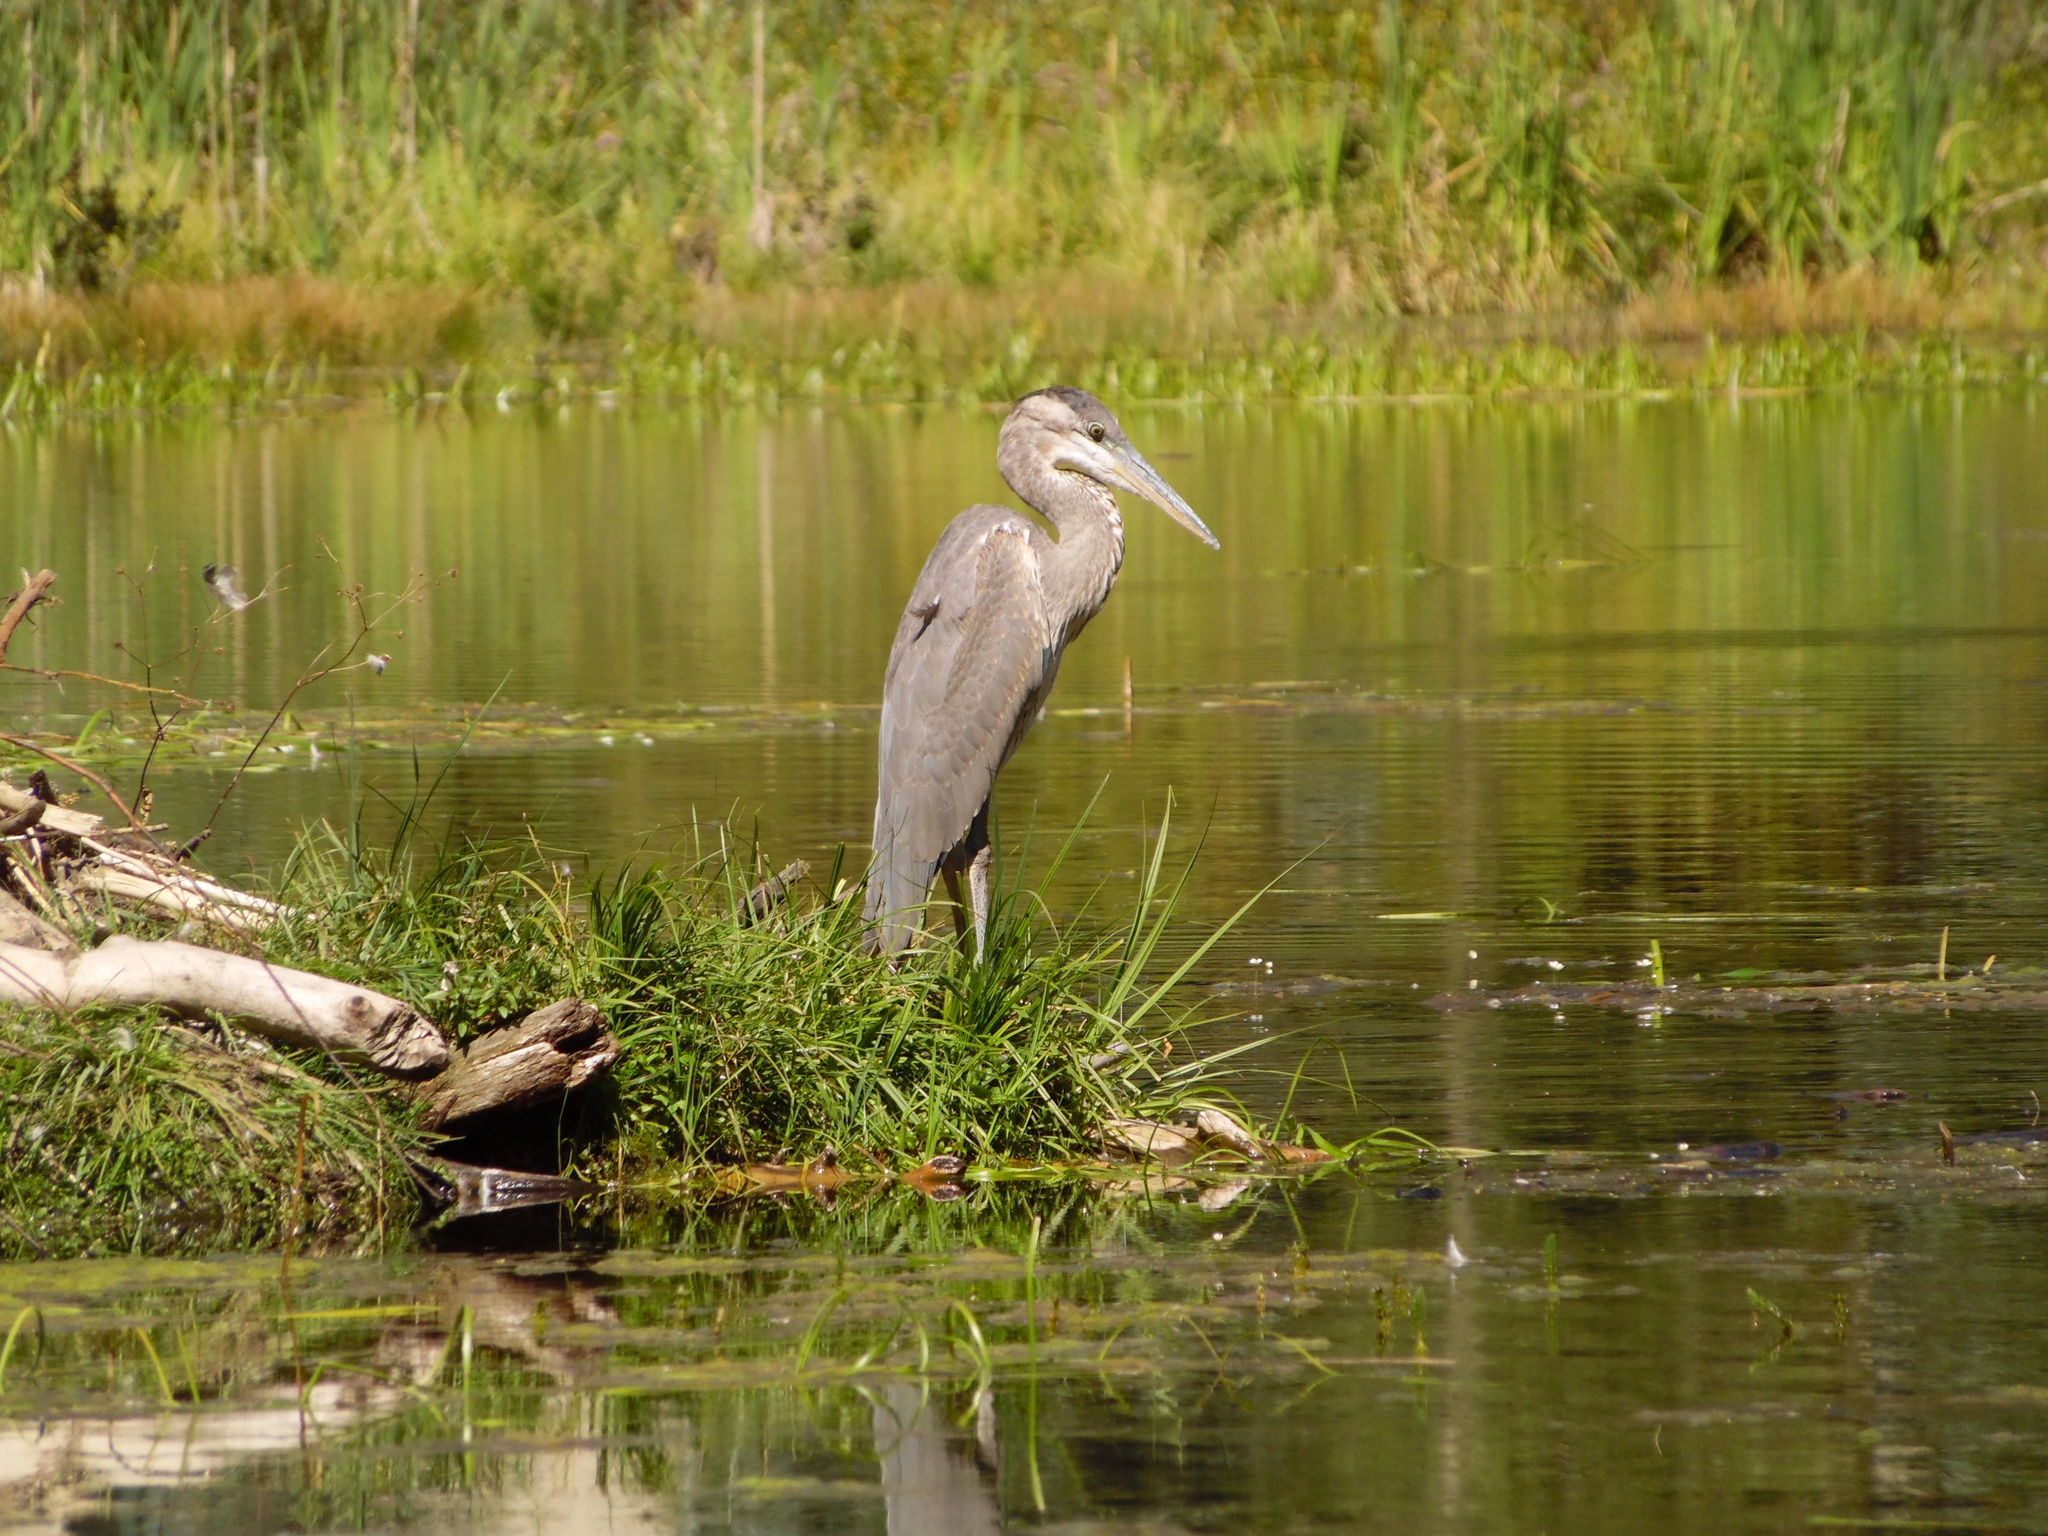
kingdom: Animalia
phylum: Chordata
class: Aves
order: Pelecaniformes
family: Ardeidae
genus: Ardea
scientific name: Ardea herodias
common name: Great blue heron
